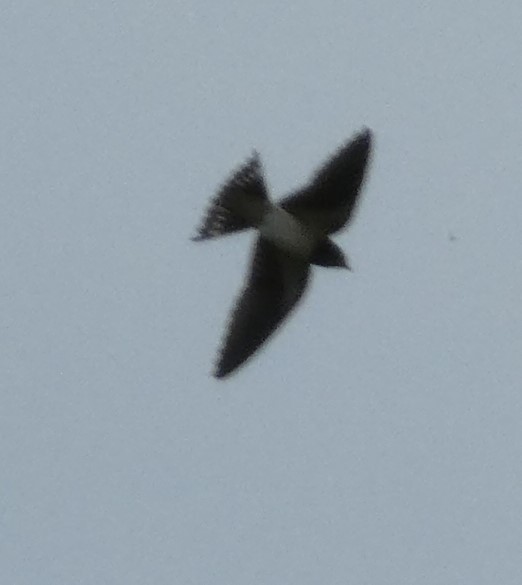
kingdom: Animalia
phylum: Chordata
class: Aves
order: Passeriformes
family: Hirundinidae
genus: Hirundo
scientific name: Hirundo rustica
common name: Barn swallow
